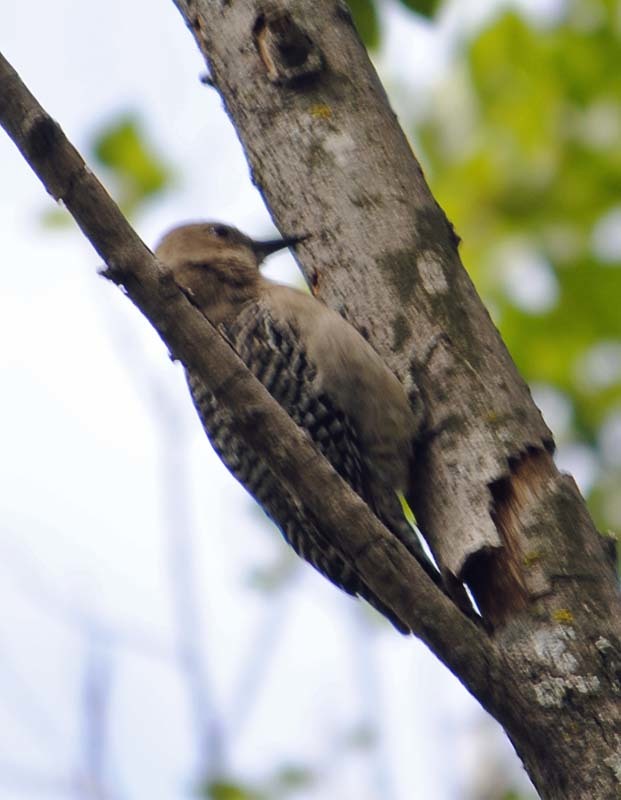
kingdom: Animalia
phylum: Chordata
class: Aves
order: Piciformes
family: Picidae
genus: Melanerpes
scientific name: Melanerpes uropygialis
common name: Gila woodpecker
